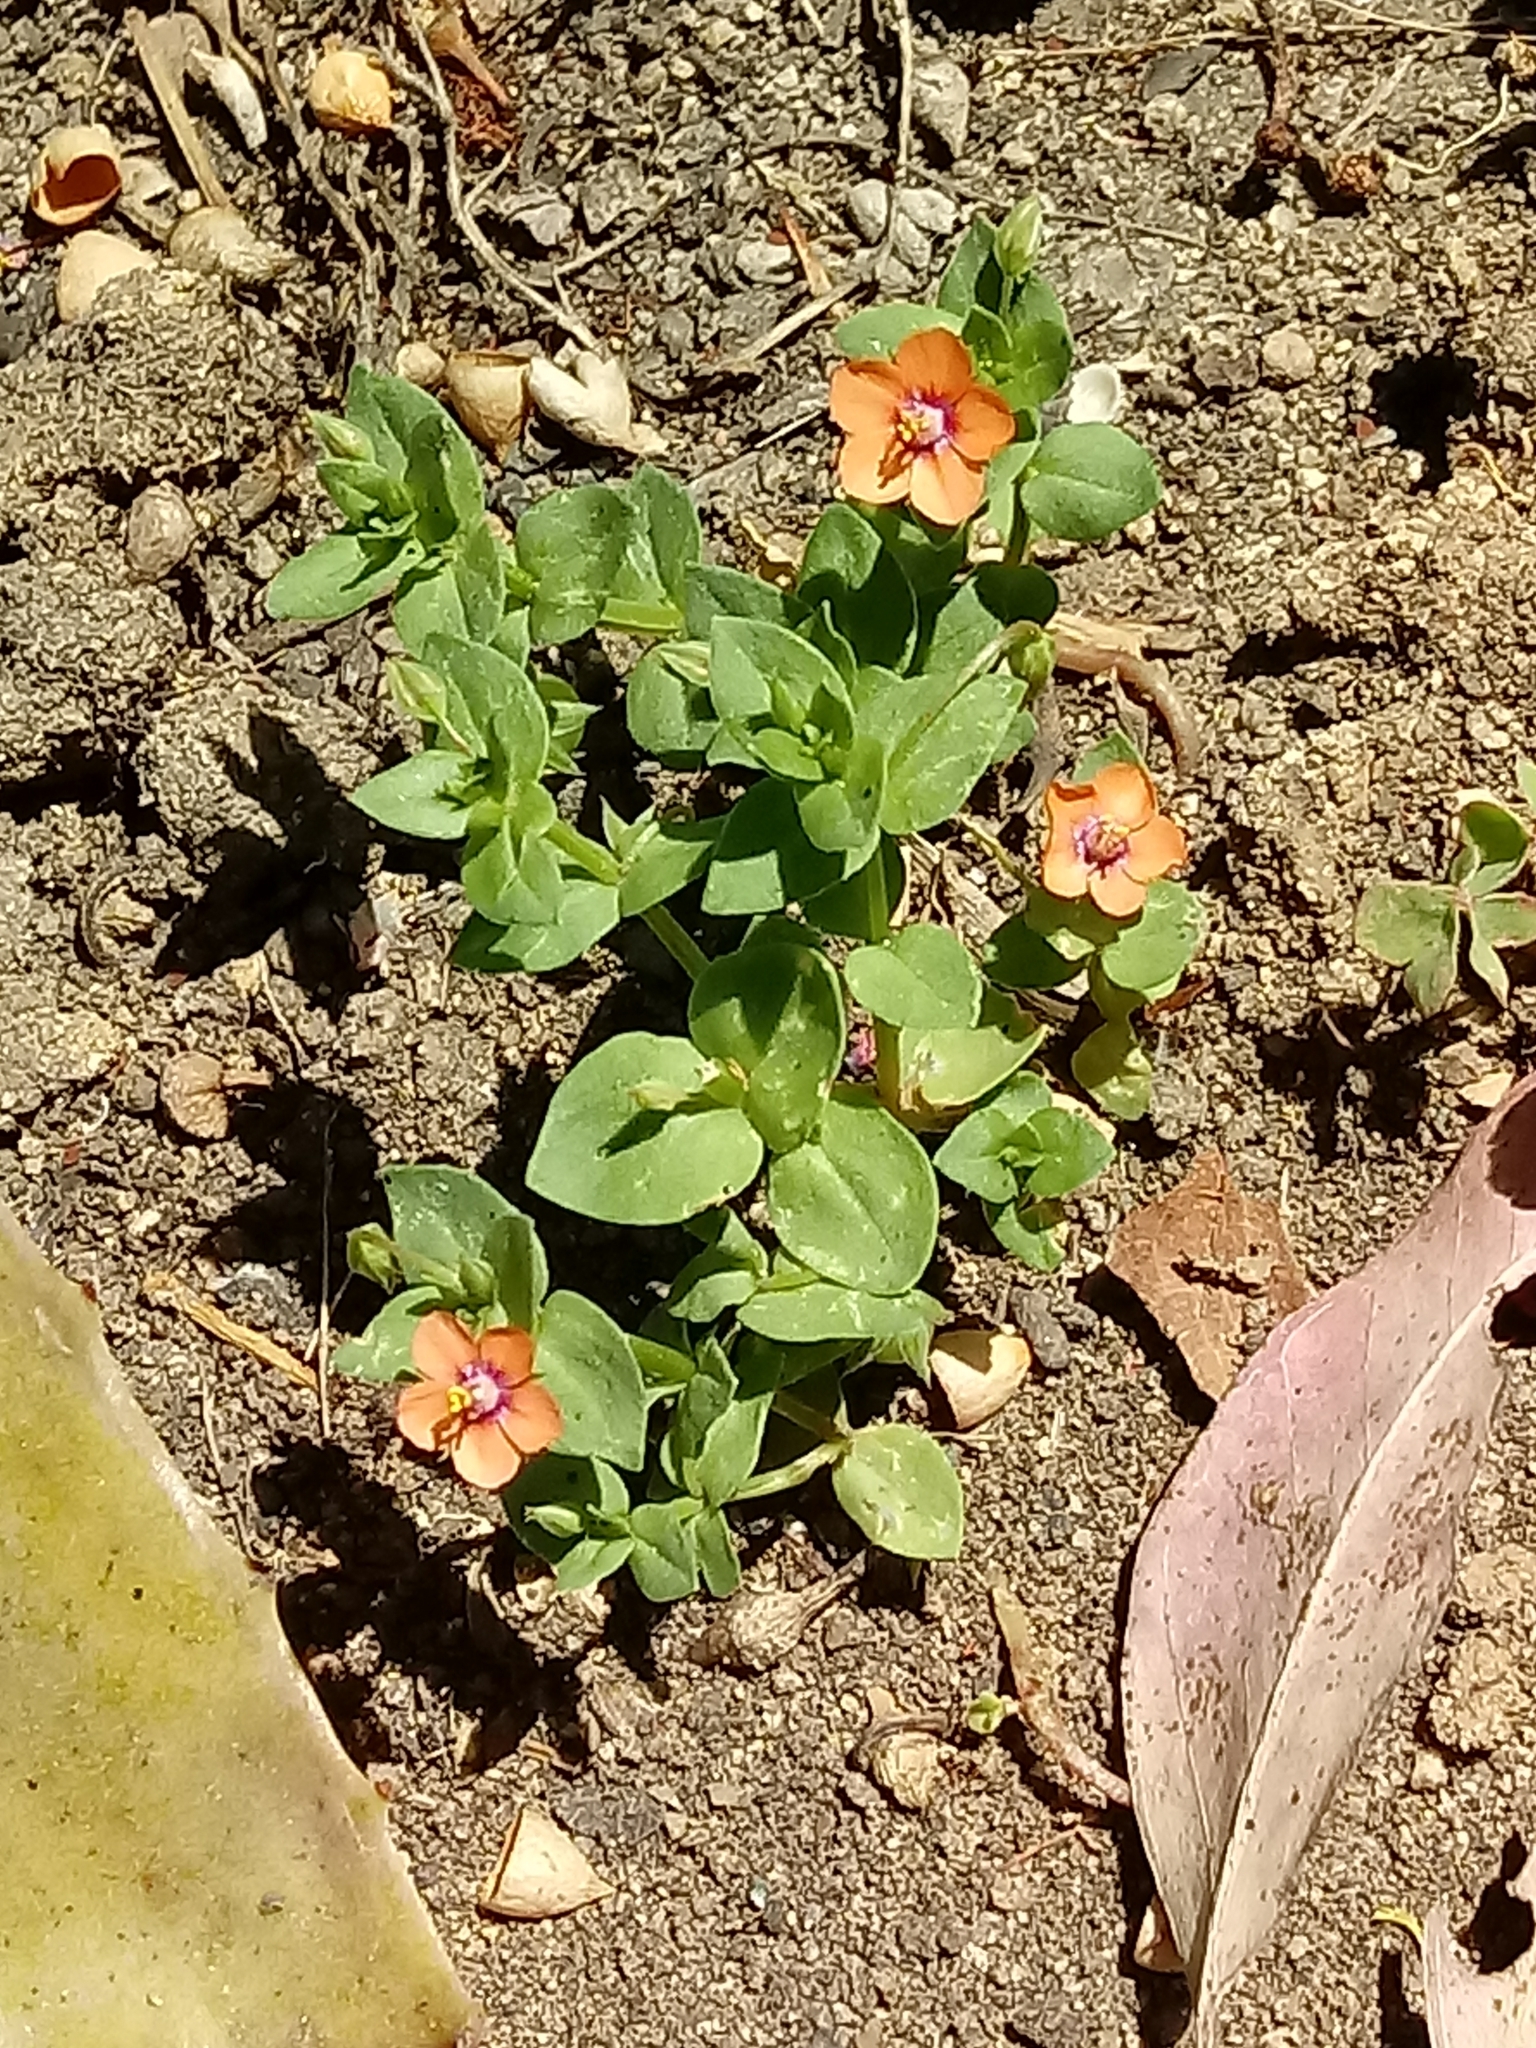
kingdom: Plantae
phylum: Tracheophyta
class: Magnoliopsida
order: Ericales
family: Primulaceae
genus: Lysimachia
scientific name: Lysimachia arvensis
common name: Scarlet pimpernel
